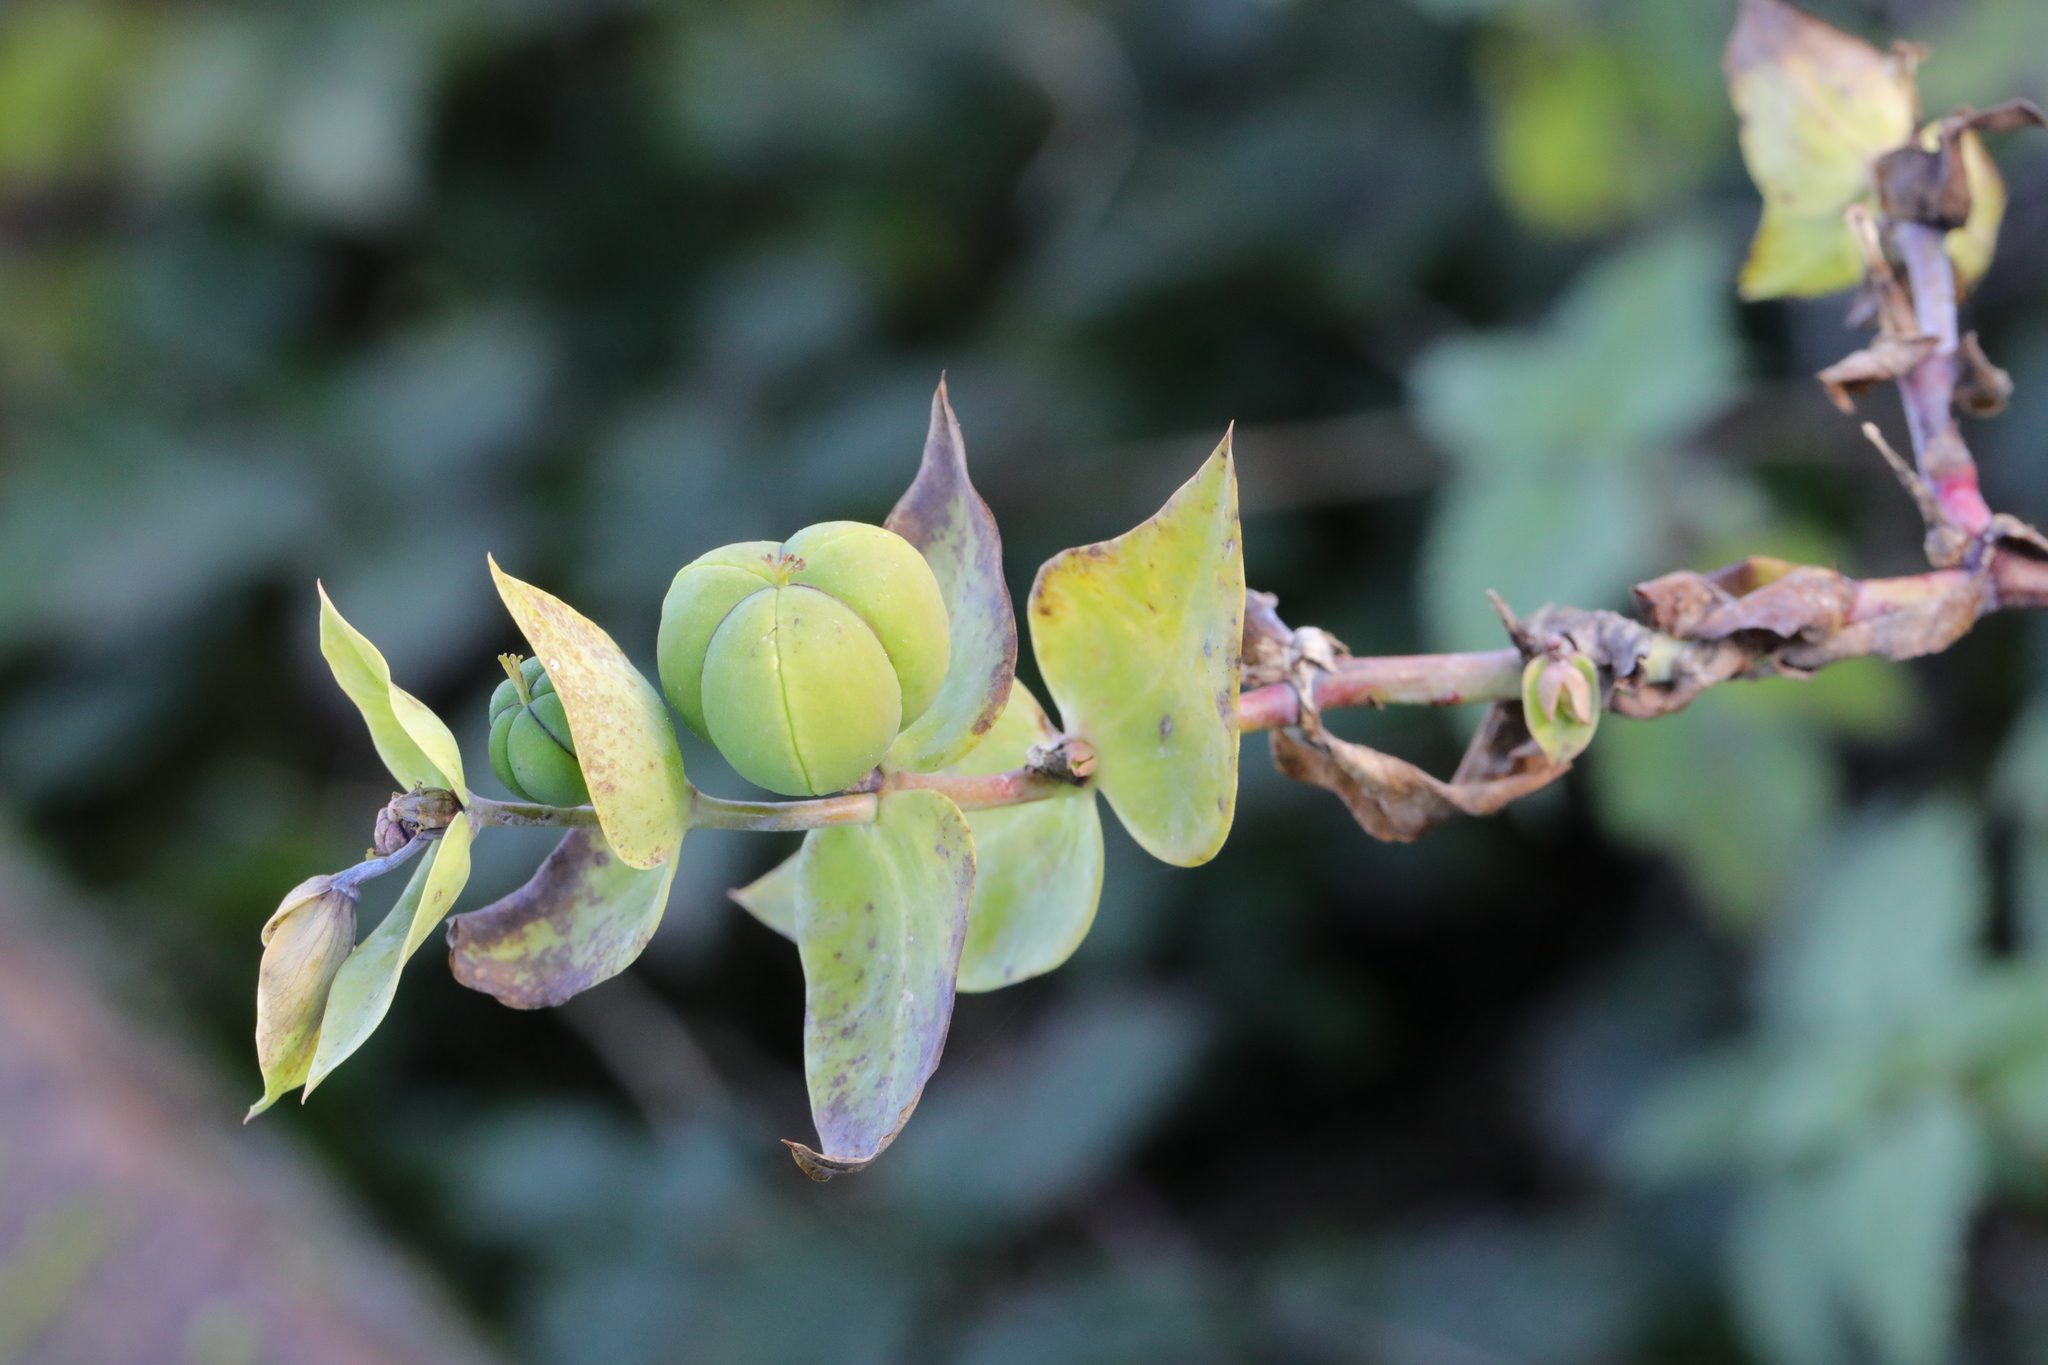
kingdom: Plantae
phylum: Tracheophyta
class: Magnoliopsida
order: Malpighiales
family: Euphorbiaceae
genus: Euphorbia
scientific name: Euphorbia lathyris
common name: Caper spurge
